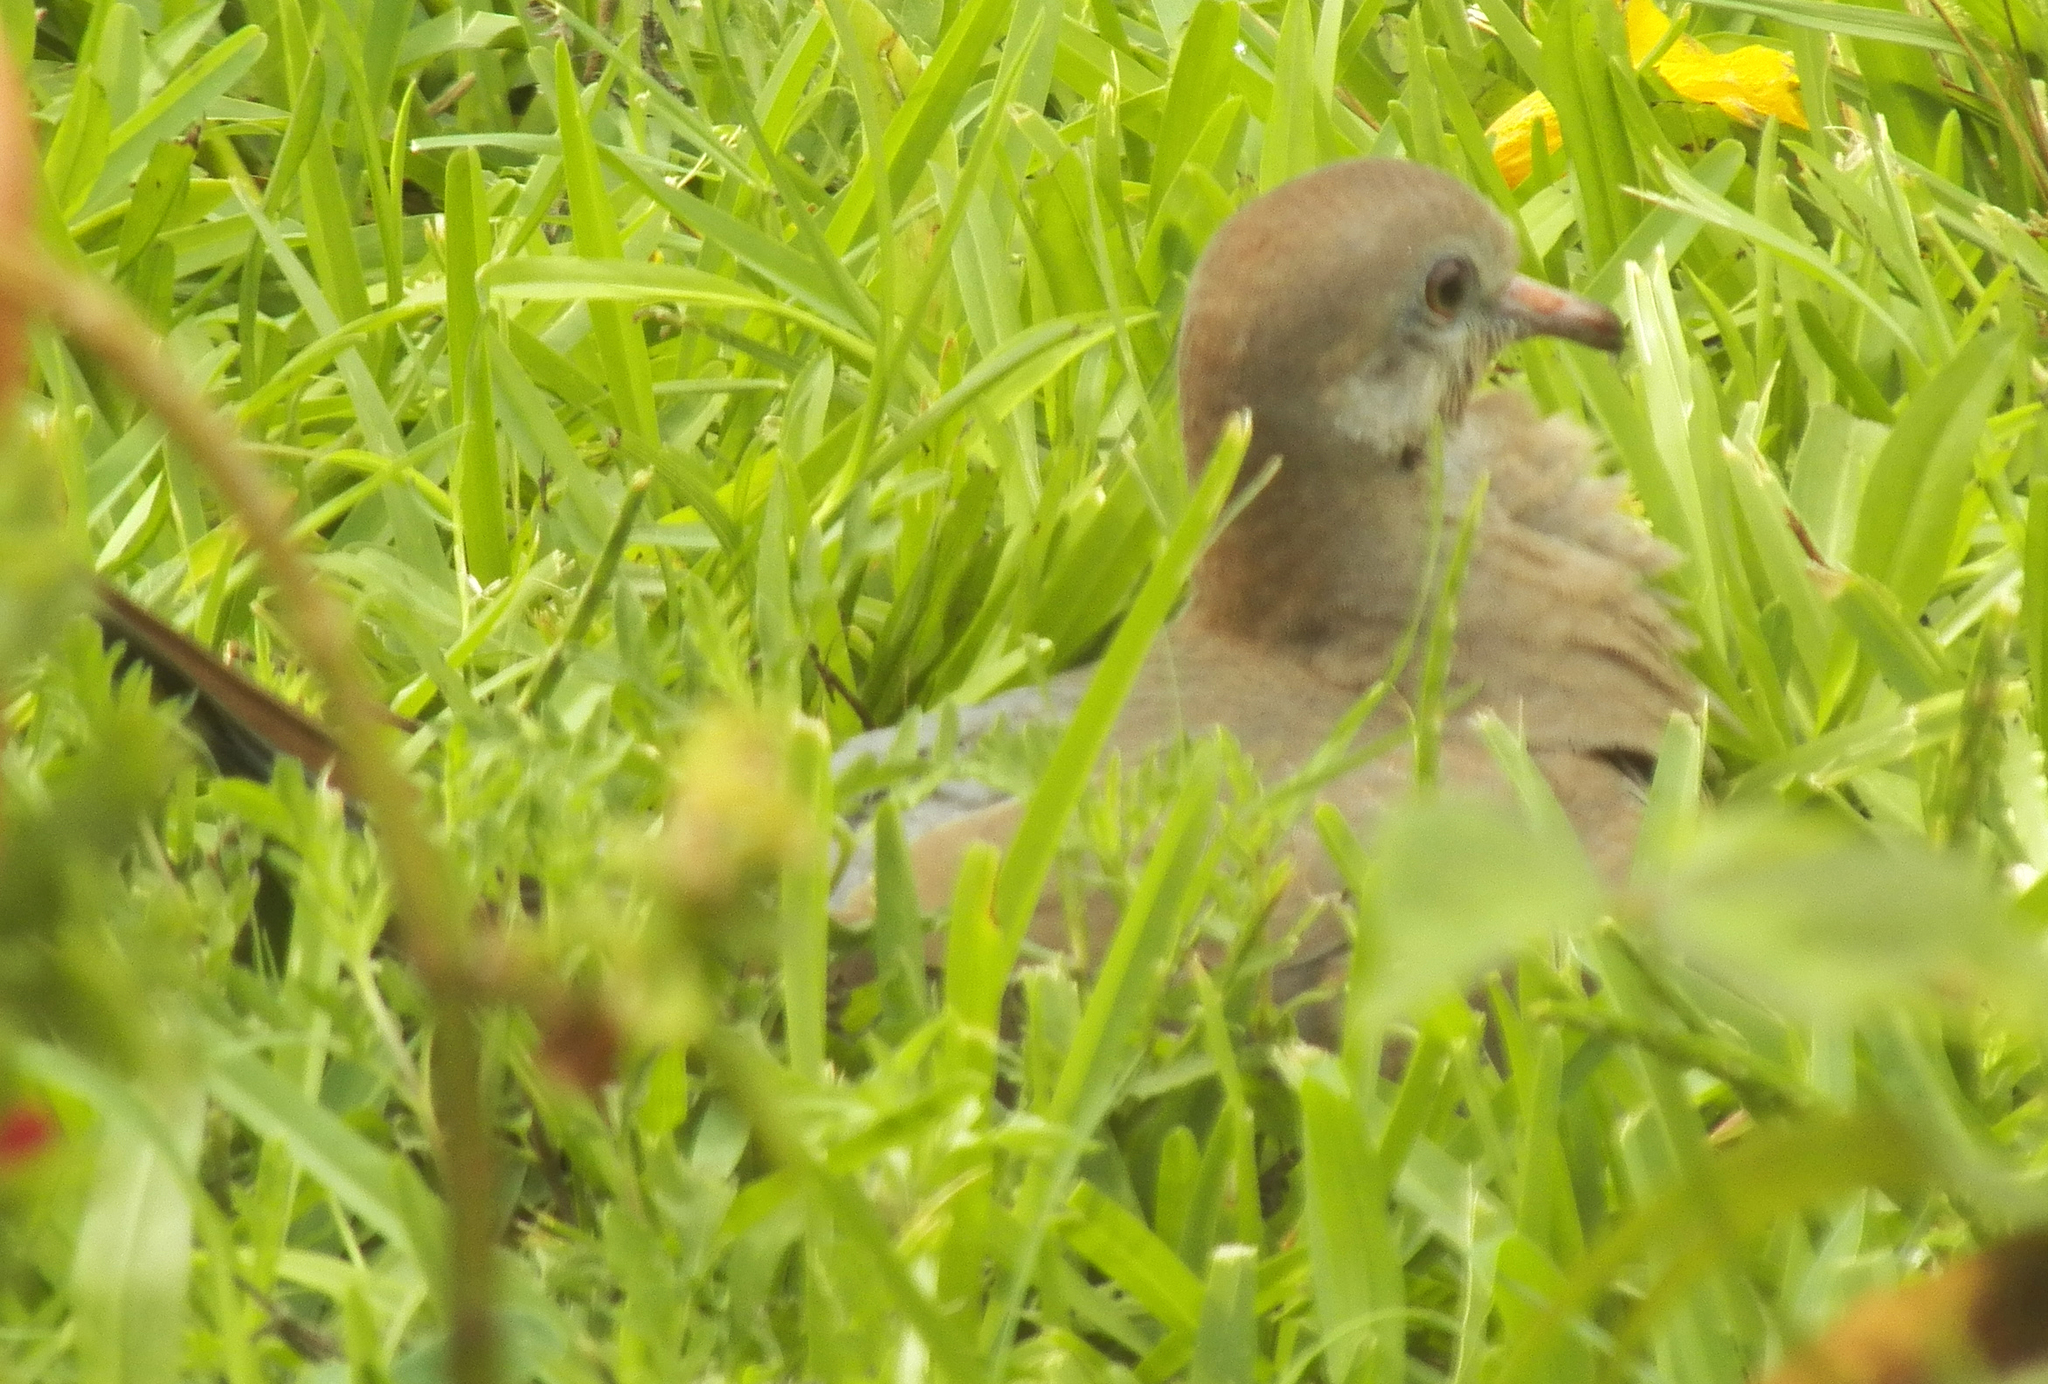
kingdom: Animalia
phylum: Chordata
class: Aves
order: Columbiformes
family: Columbidae
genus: Zenaida
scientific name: Zenaida macroura
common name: Mourning dove
